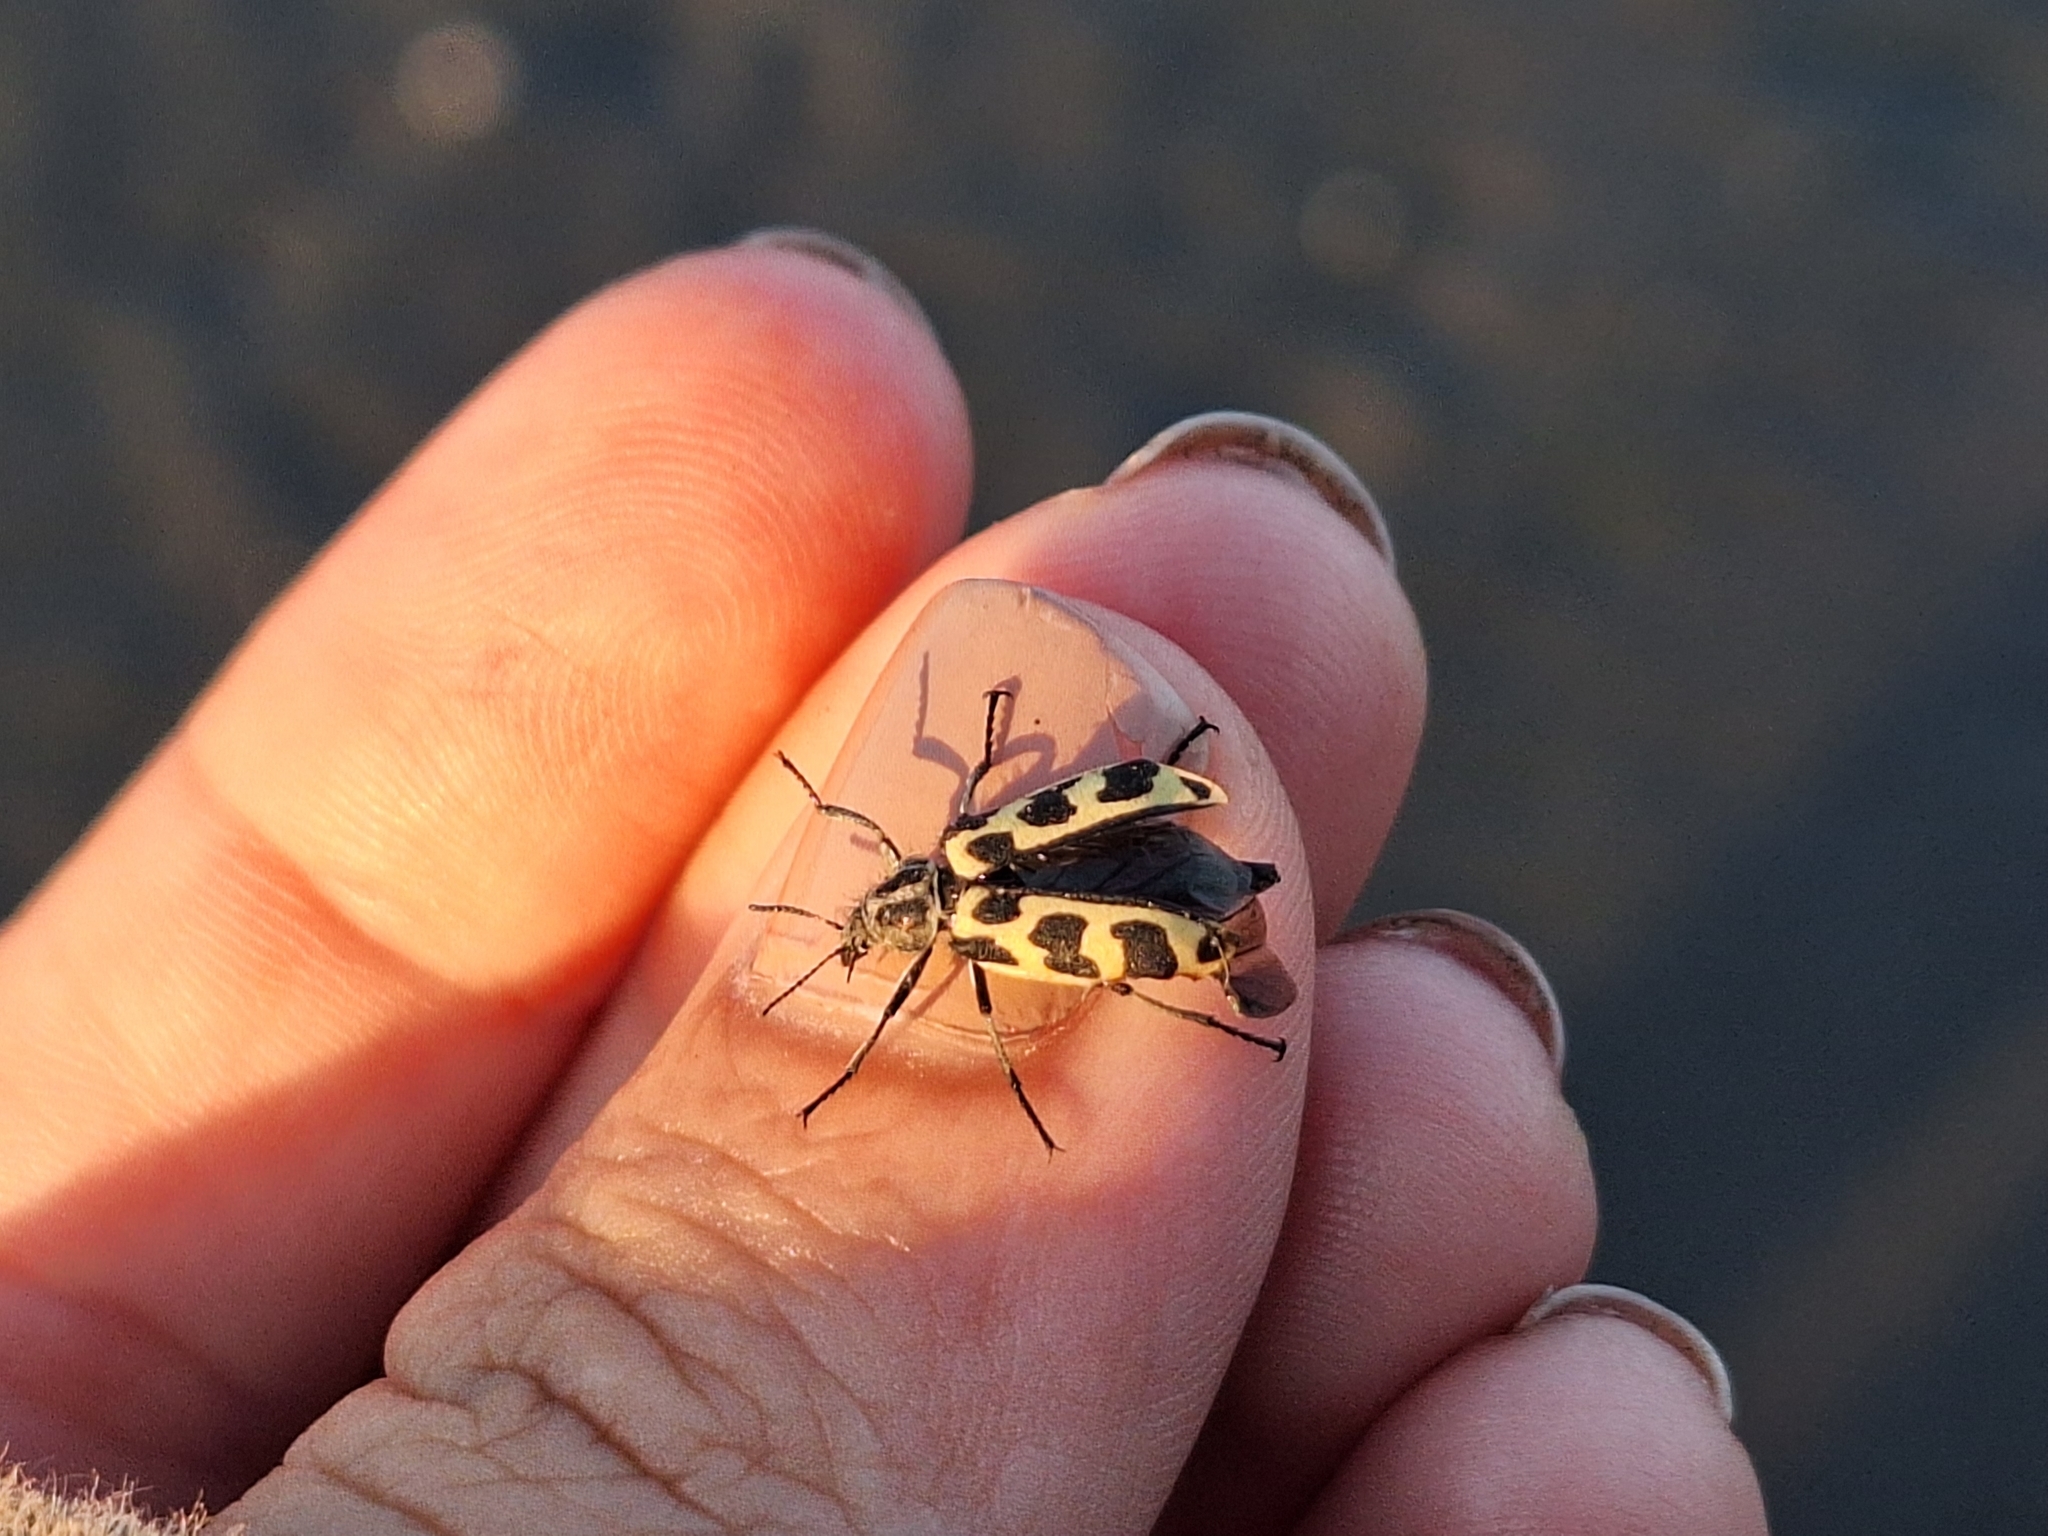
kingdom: Animalia
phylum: Arthropoda
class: Insecta
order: Coleoptera
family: Melyridae
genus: Astylus
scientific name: Astylus atromaculatus
